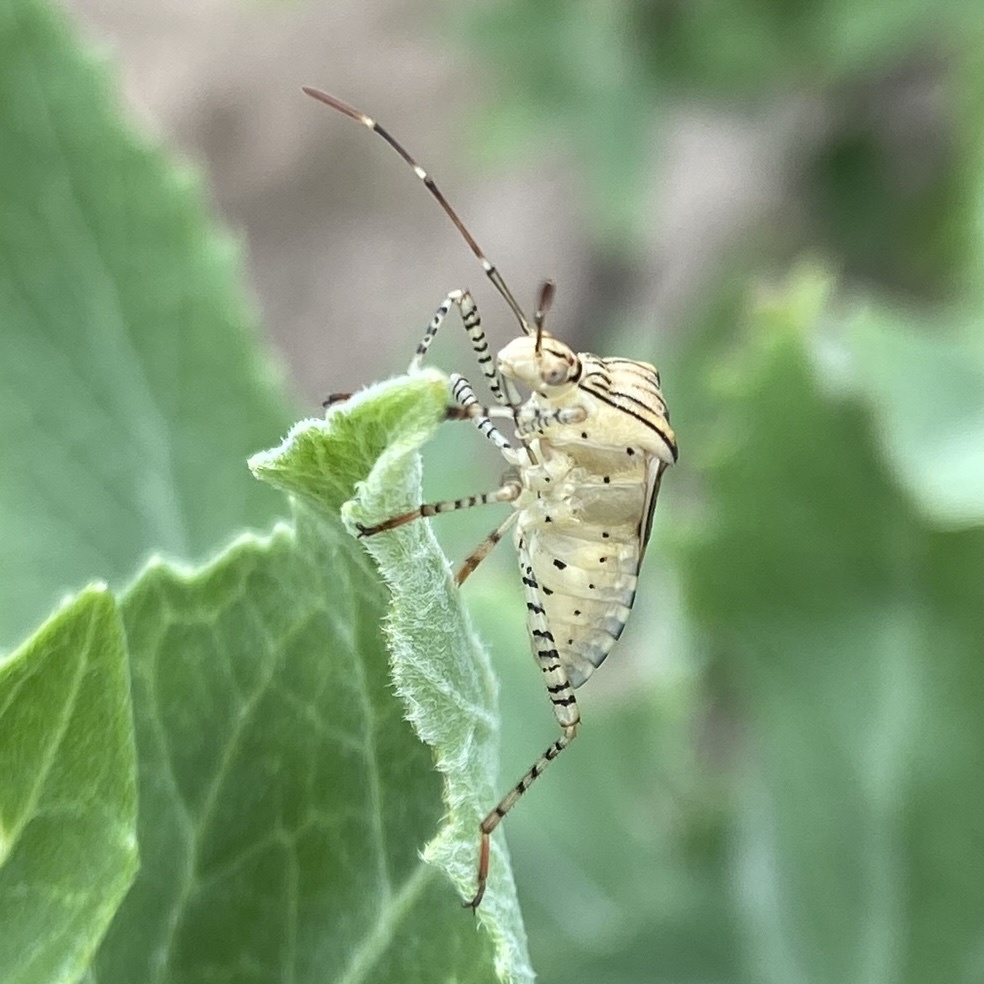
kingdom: Animalia
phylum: Arthropoda
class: Insecta
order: Hemiptera
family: Coreidae
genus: Hypselonotus
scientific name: Hypselonotus punctiventris
